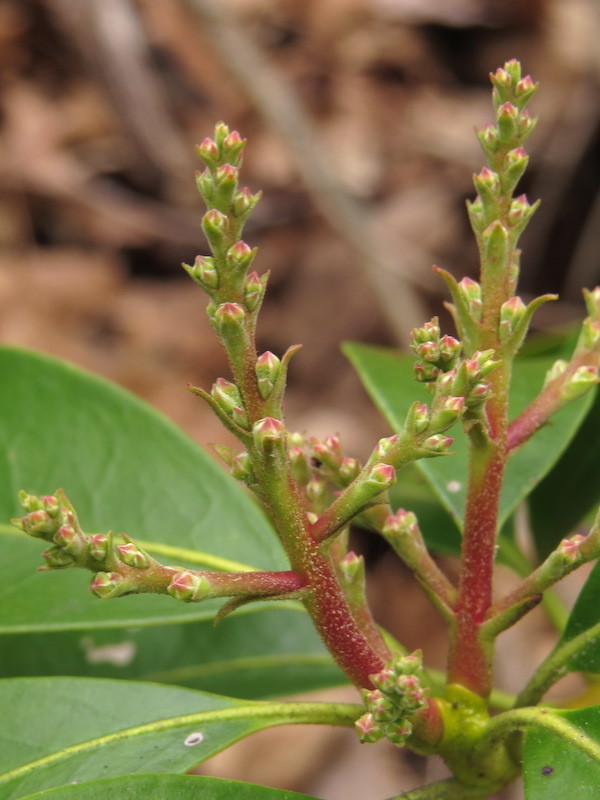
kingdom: Plantae
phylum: Tracheophyta
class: Magnoliopsida
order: Ericales
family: Ericaceae
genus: Kalmia
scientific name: Kalmia latifolia
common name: Mountain-laurel
